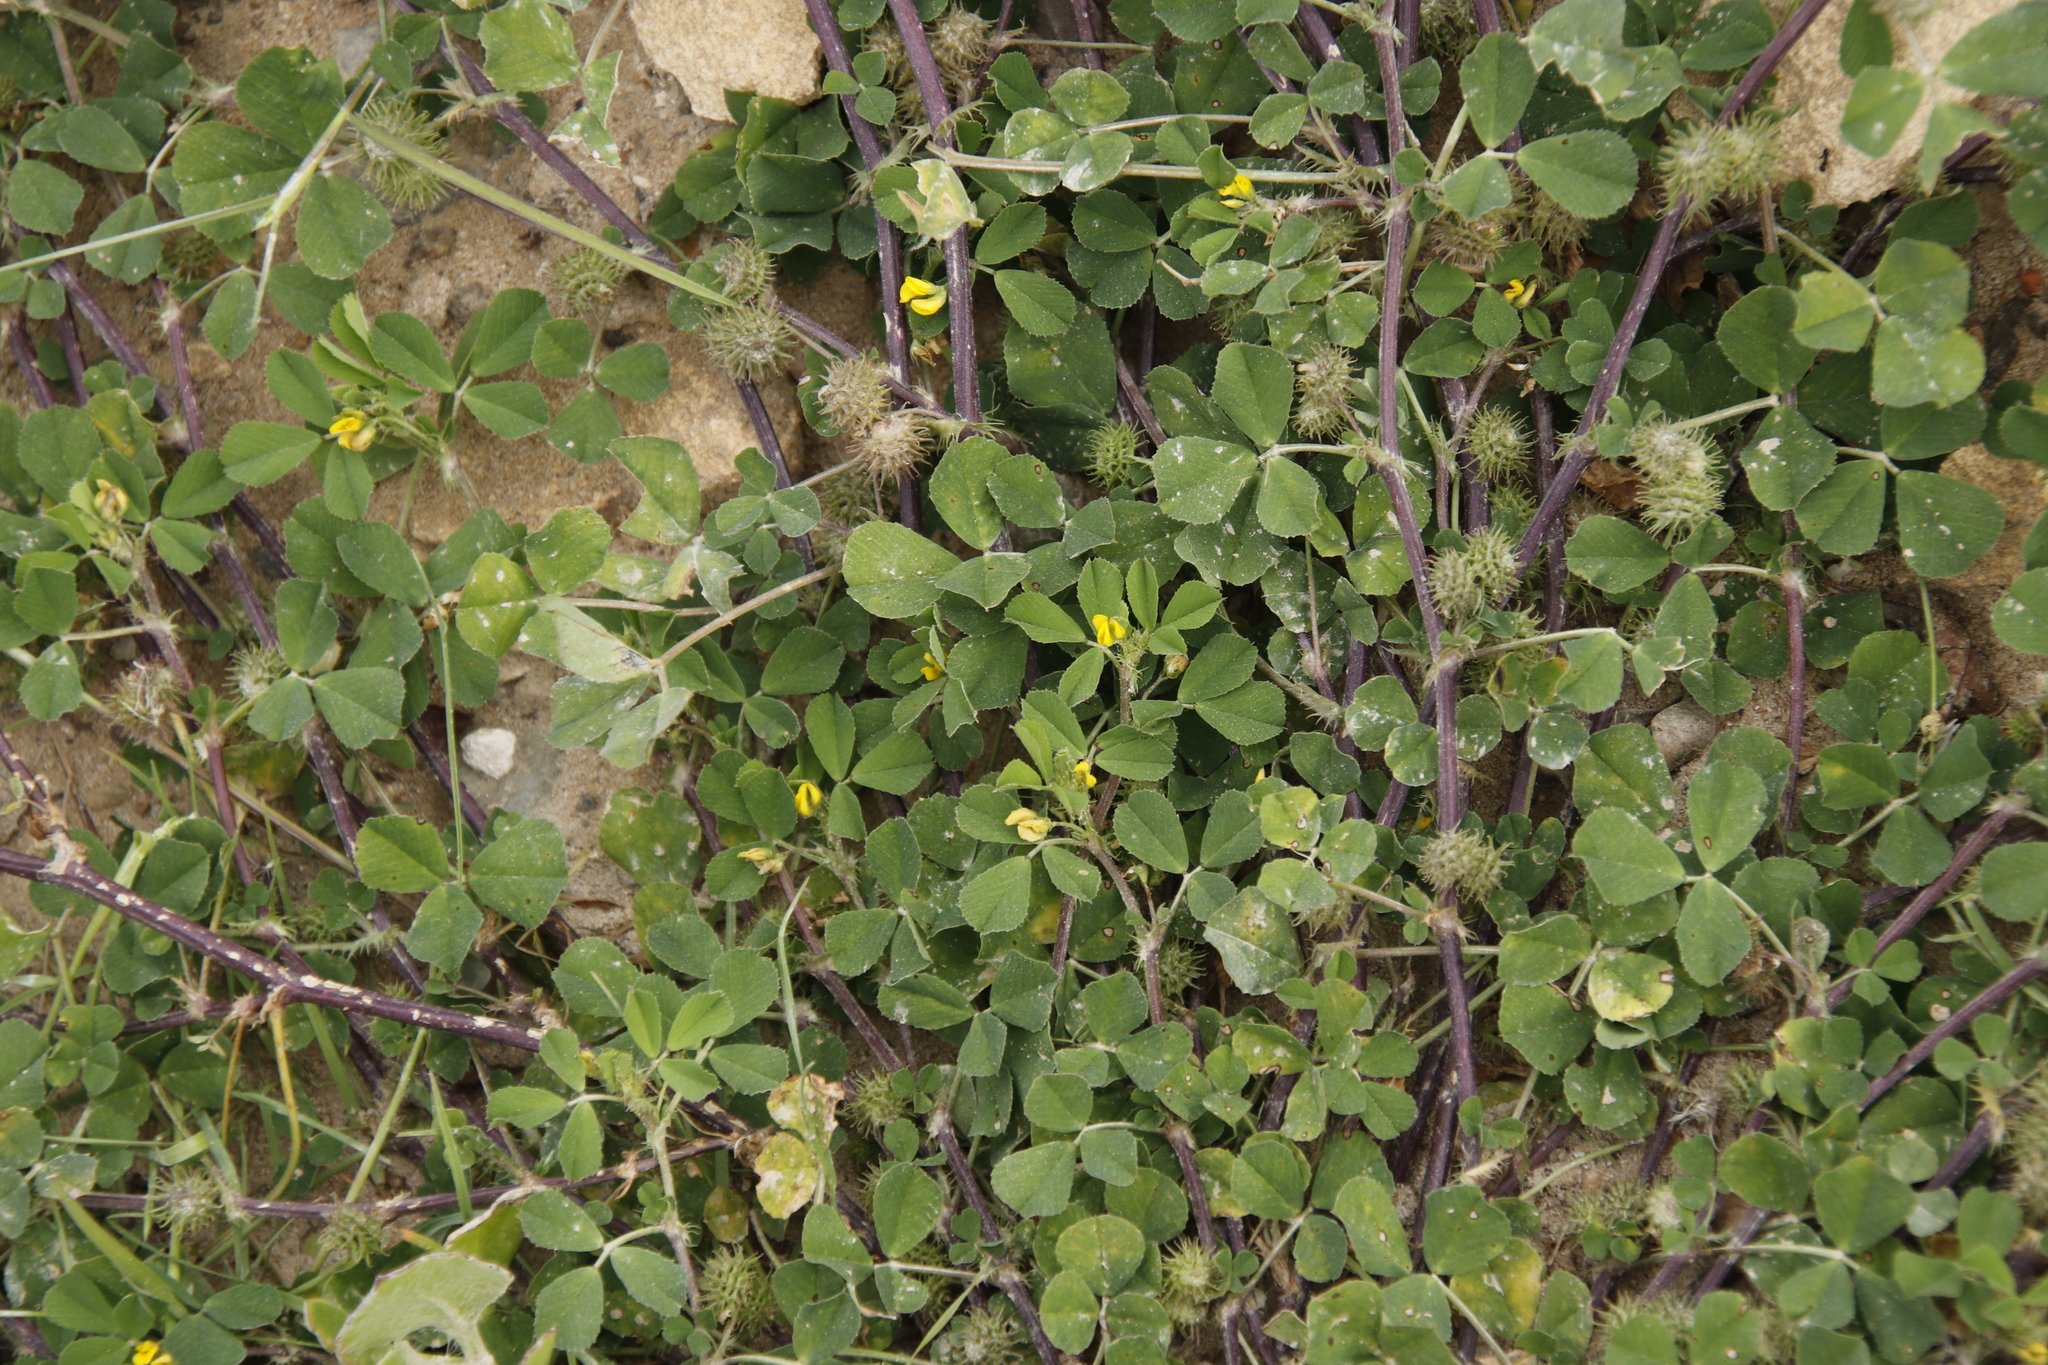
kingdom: Plantae
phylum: Tracheophyta
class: Magnoliopsida
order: Fabales
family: Fabaceae
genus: Medicago
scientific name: Medicago polymorpha
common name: Burclover
